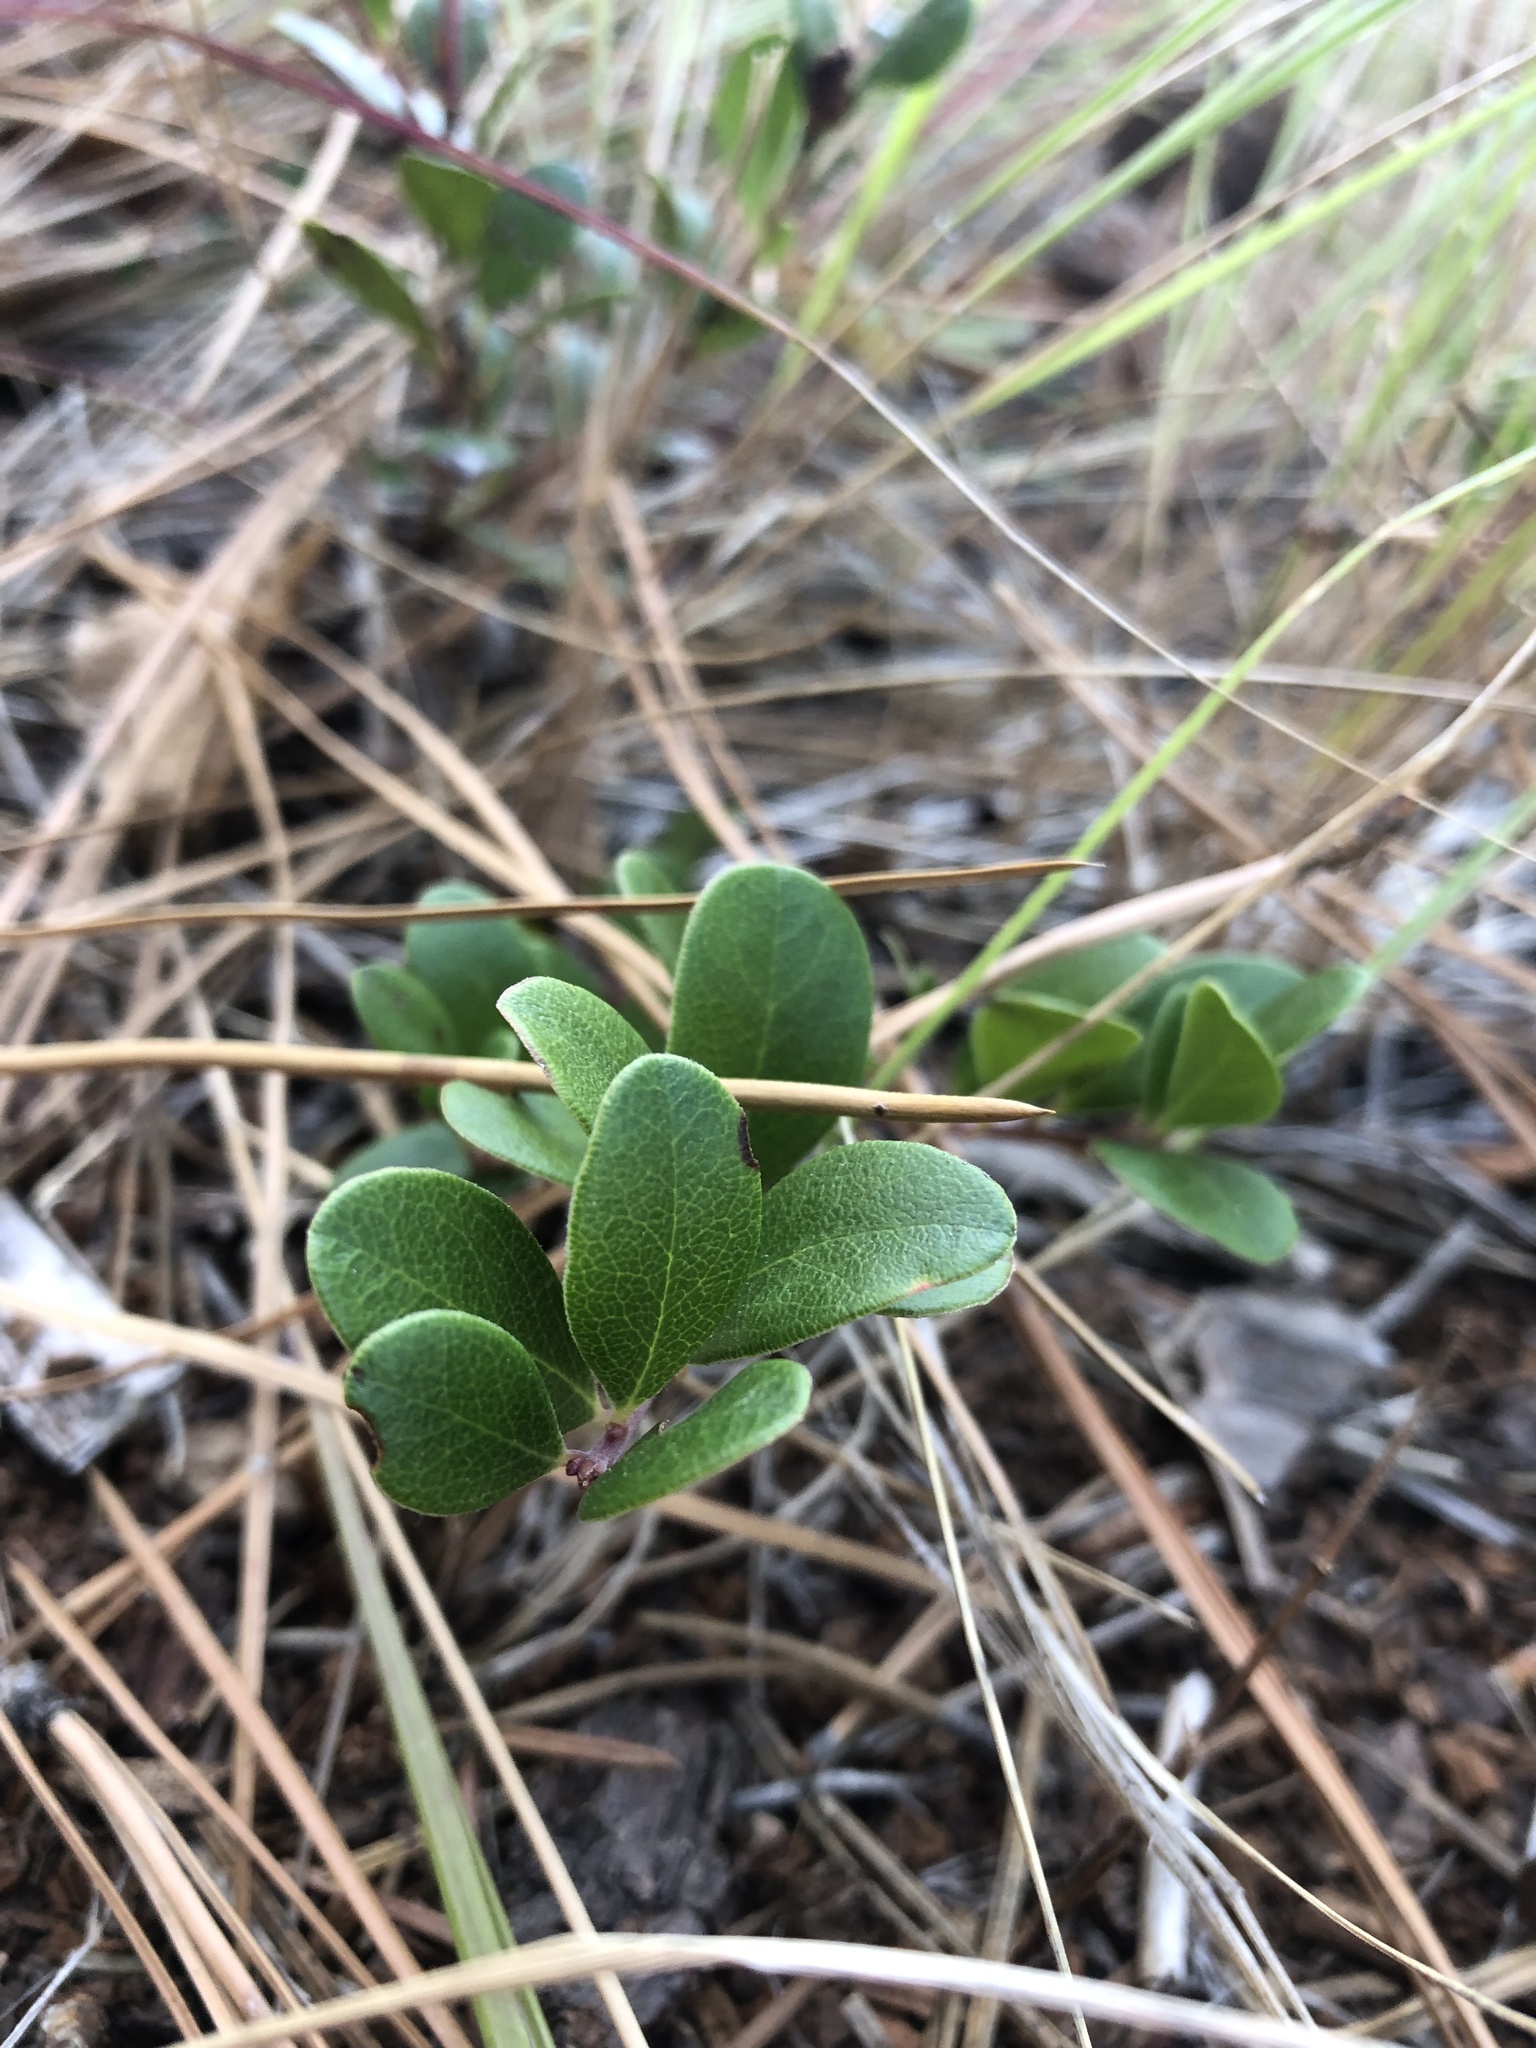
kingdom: Plantae
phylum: Tracheophyta
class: Magnoliopsida
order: Ericales
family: Ericaceae
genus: Arctostaphylos
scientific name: Arctostaphylos uva-ursi
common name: Bearberry
